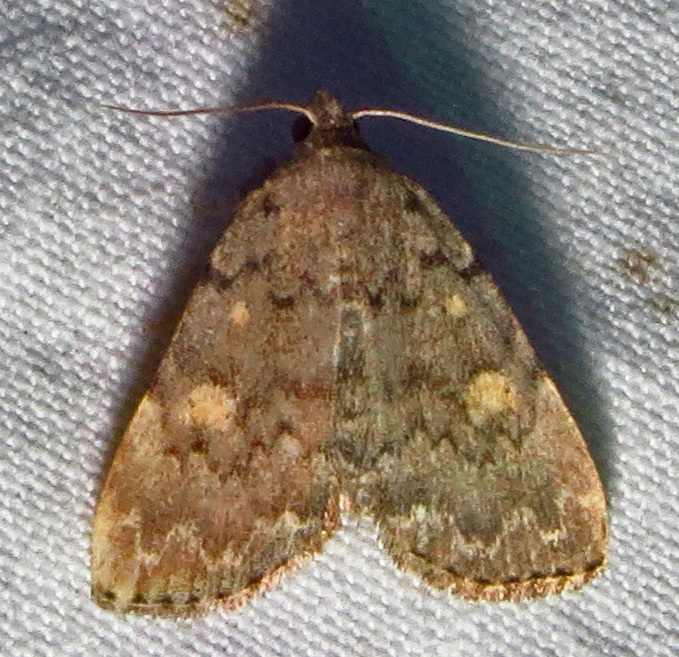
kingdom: Animalia
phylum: Arthropoda
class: Insecta
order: Lepidoptera
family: Erebidae
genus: Idia
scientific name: Idia aemula
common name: Common idia moth
